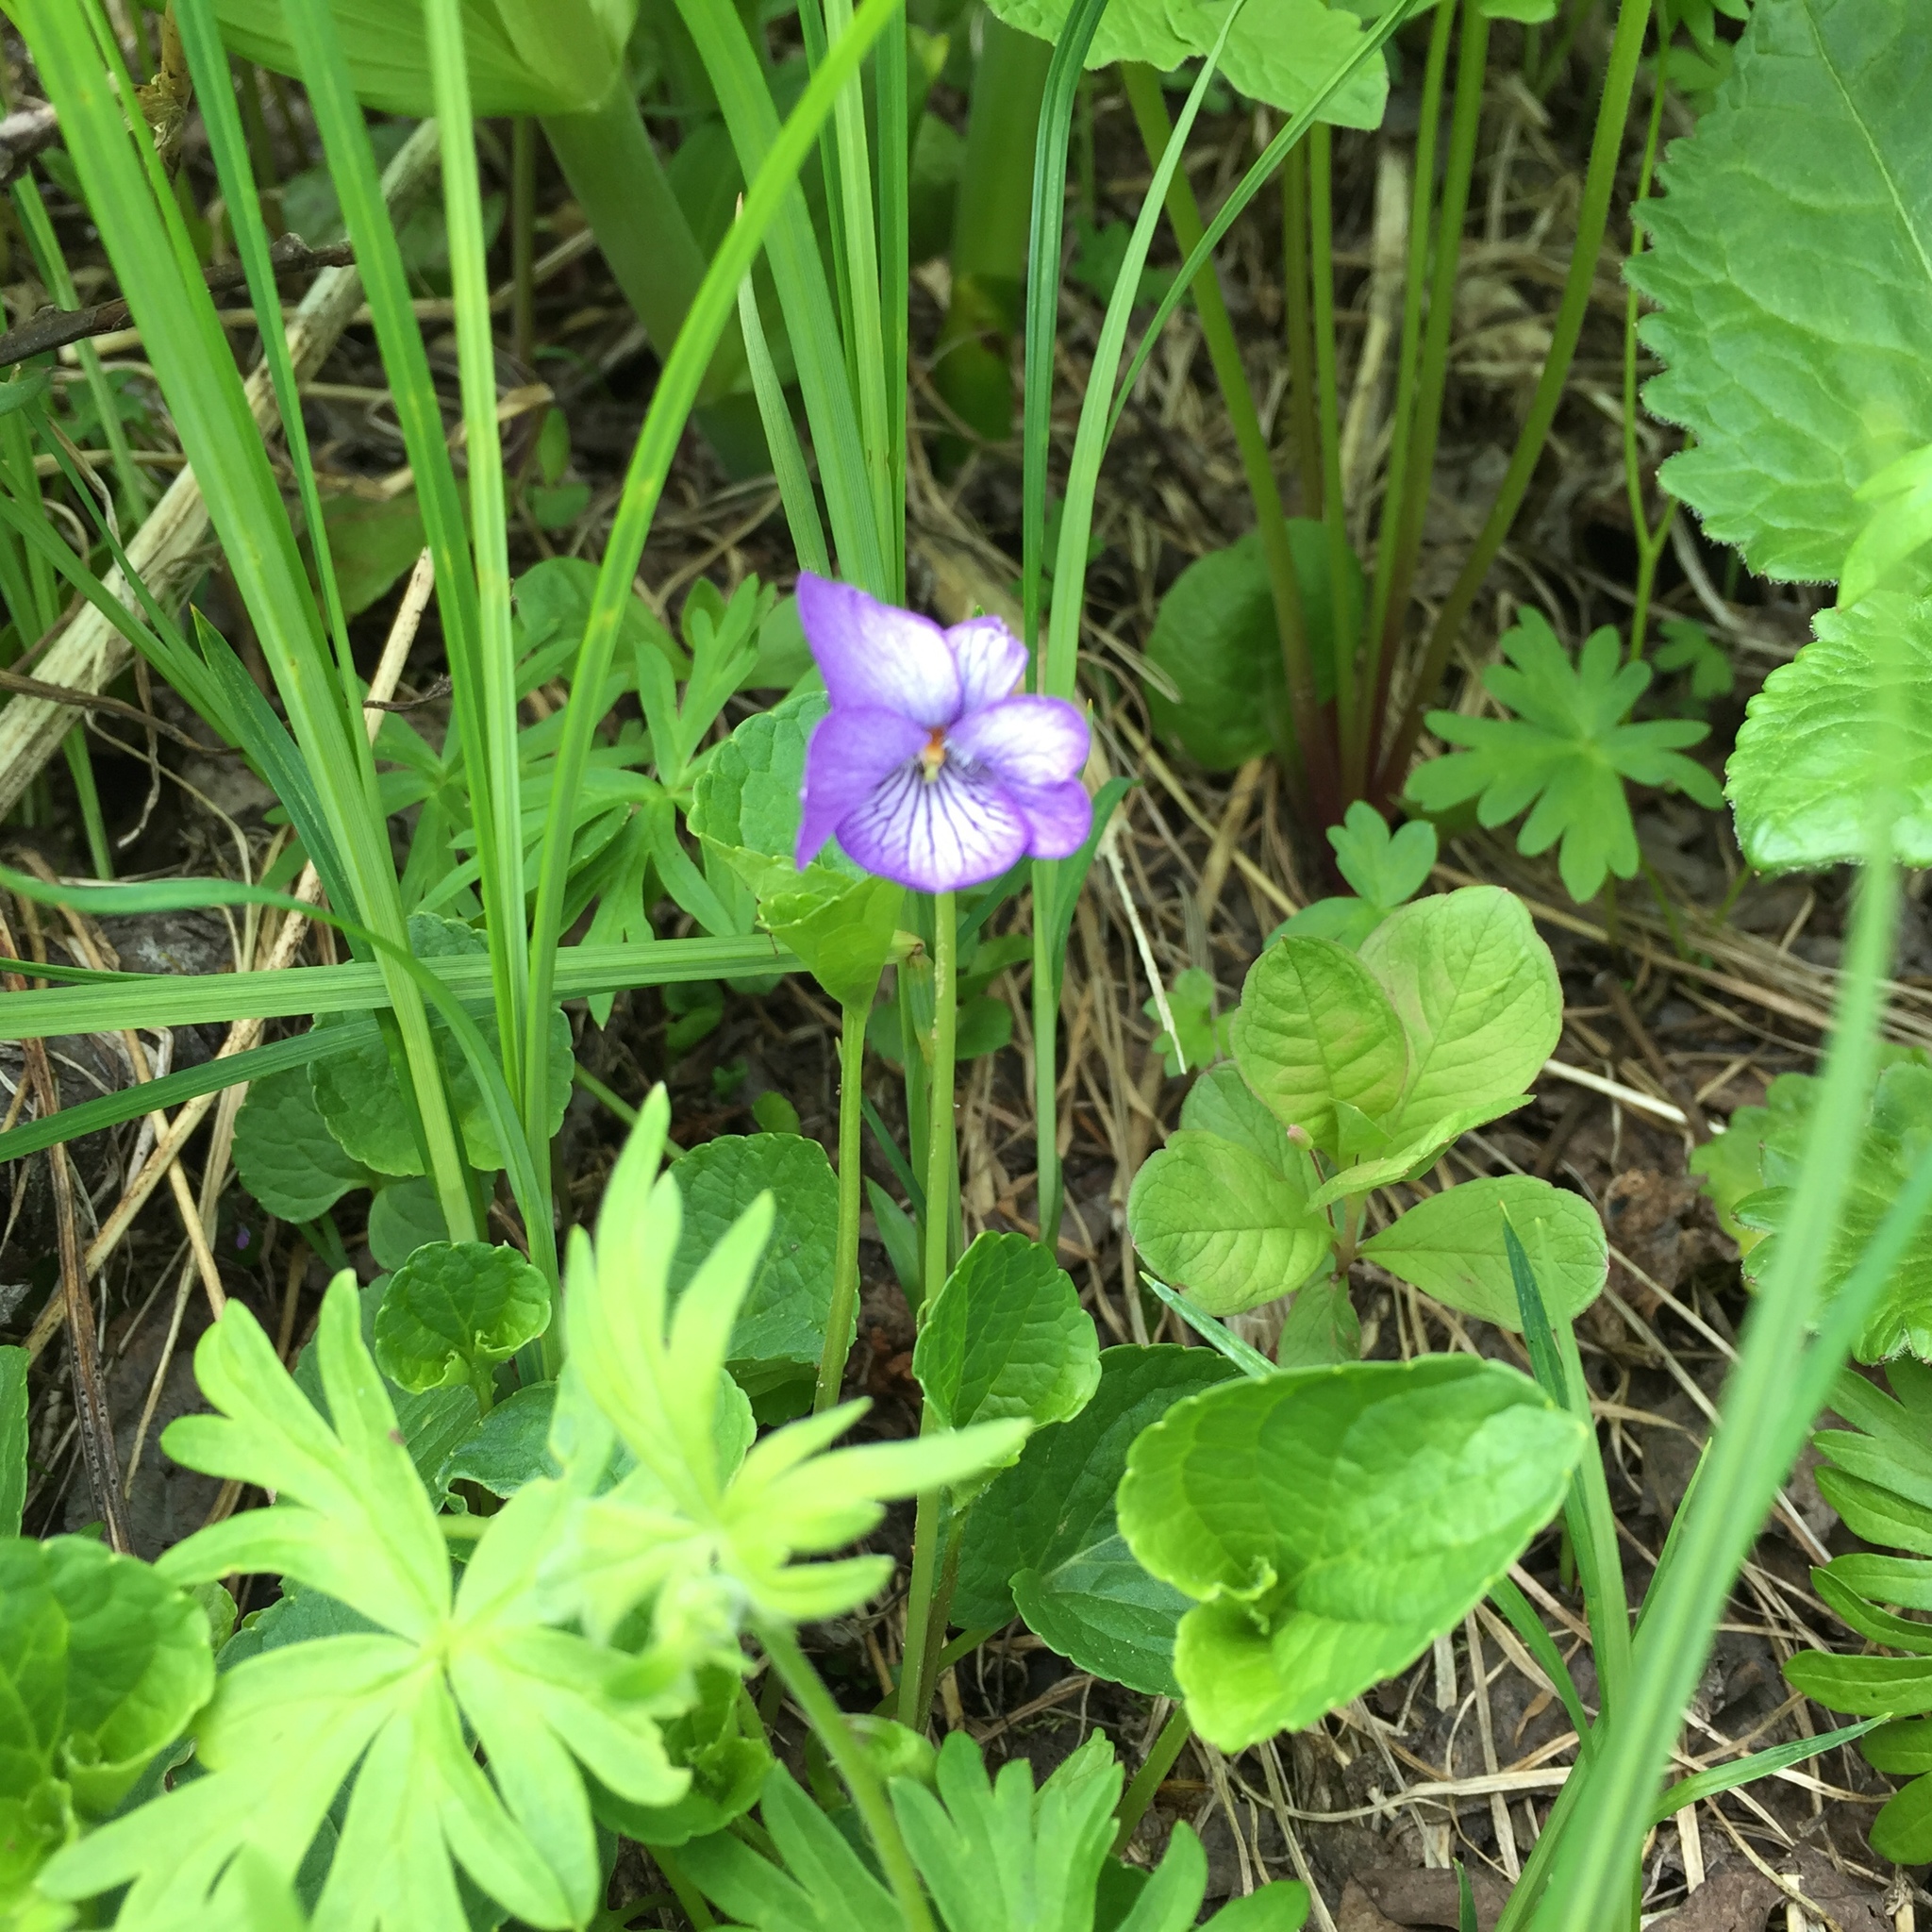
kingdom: Plantae
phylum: Tracheophyta
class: Magnoliopsida
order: Malpighiales
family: Violaceae
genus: Viola
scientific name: Viola langsdorffii
